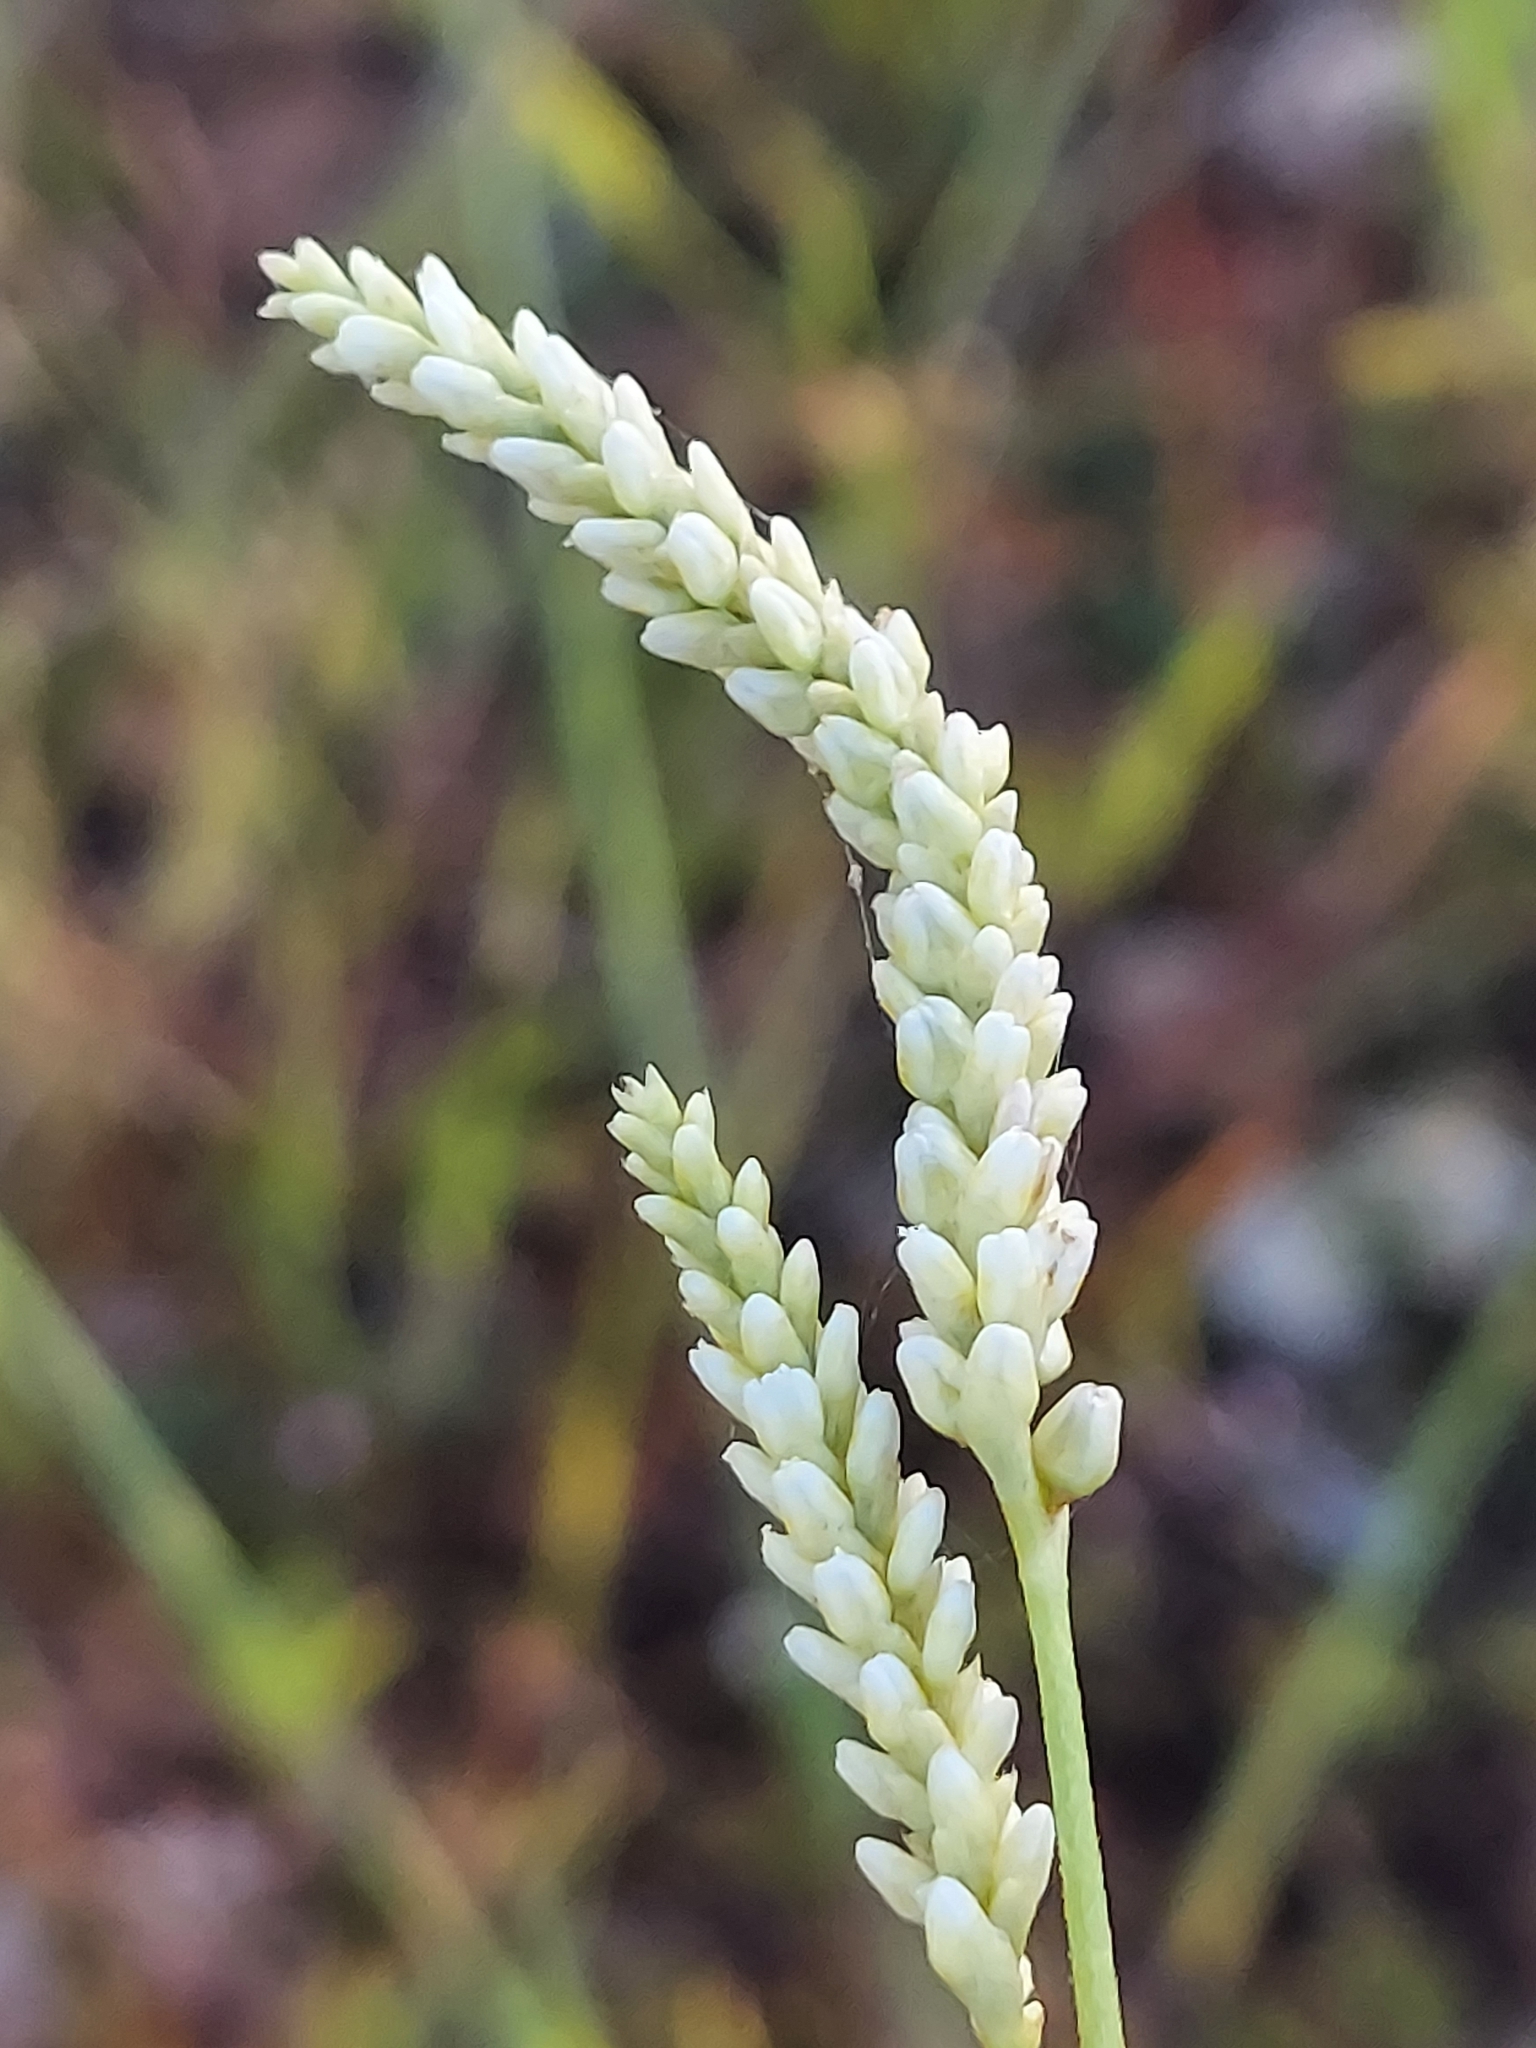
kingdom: Plantae
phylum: Tracheophyta
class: Magnoliopsida
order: Caryophyllales
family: Polygonaceae
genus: Persicaria
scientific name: Persicaria lapathifolia
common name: Curlytop knotweed
